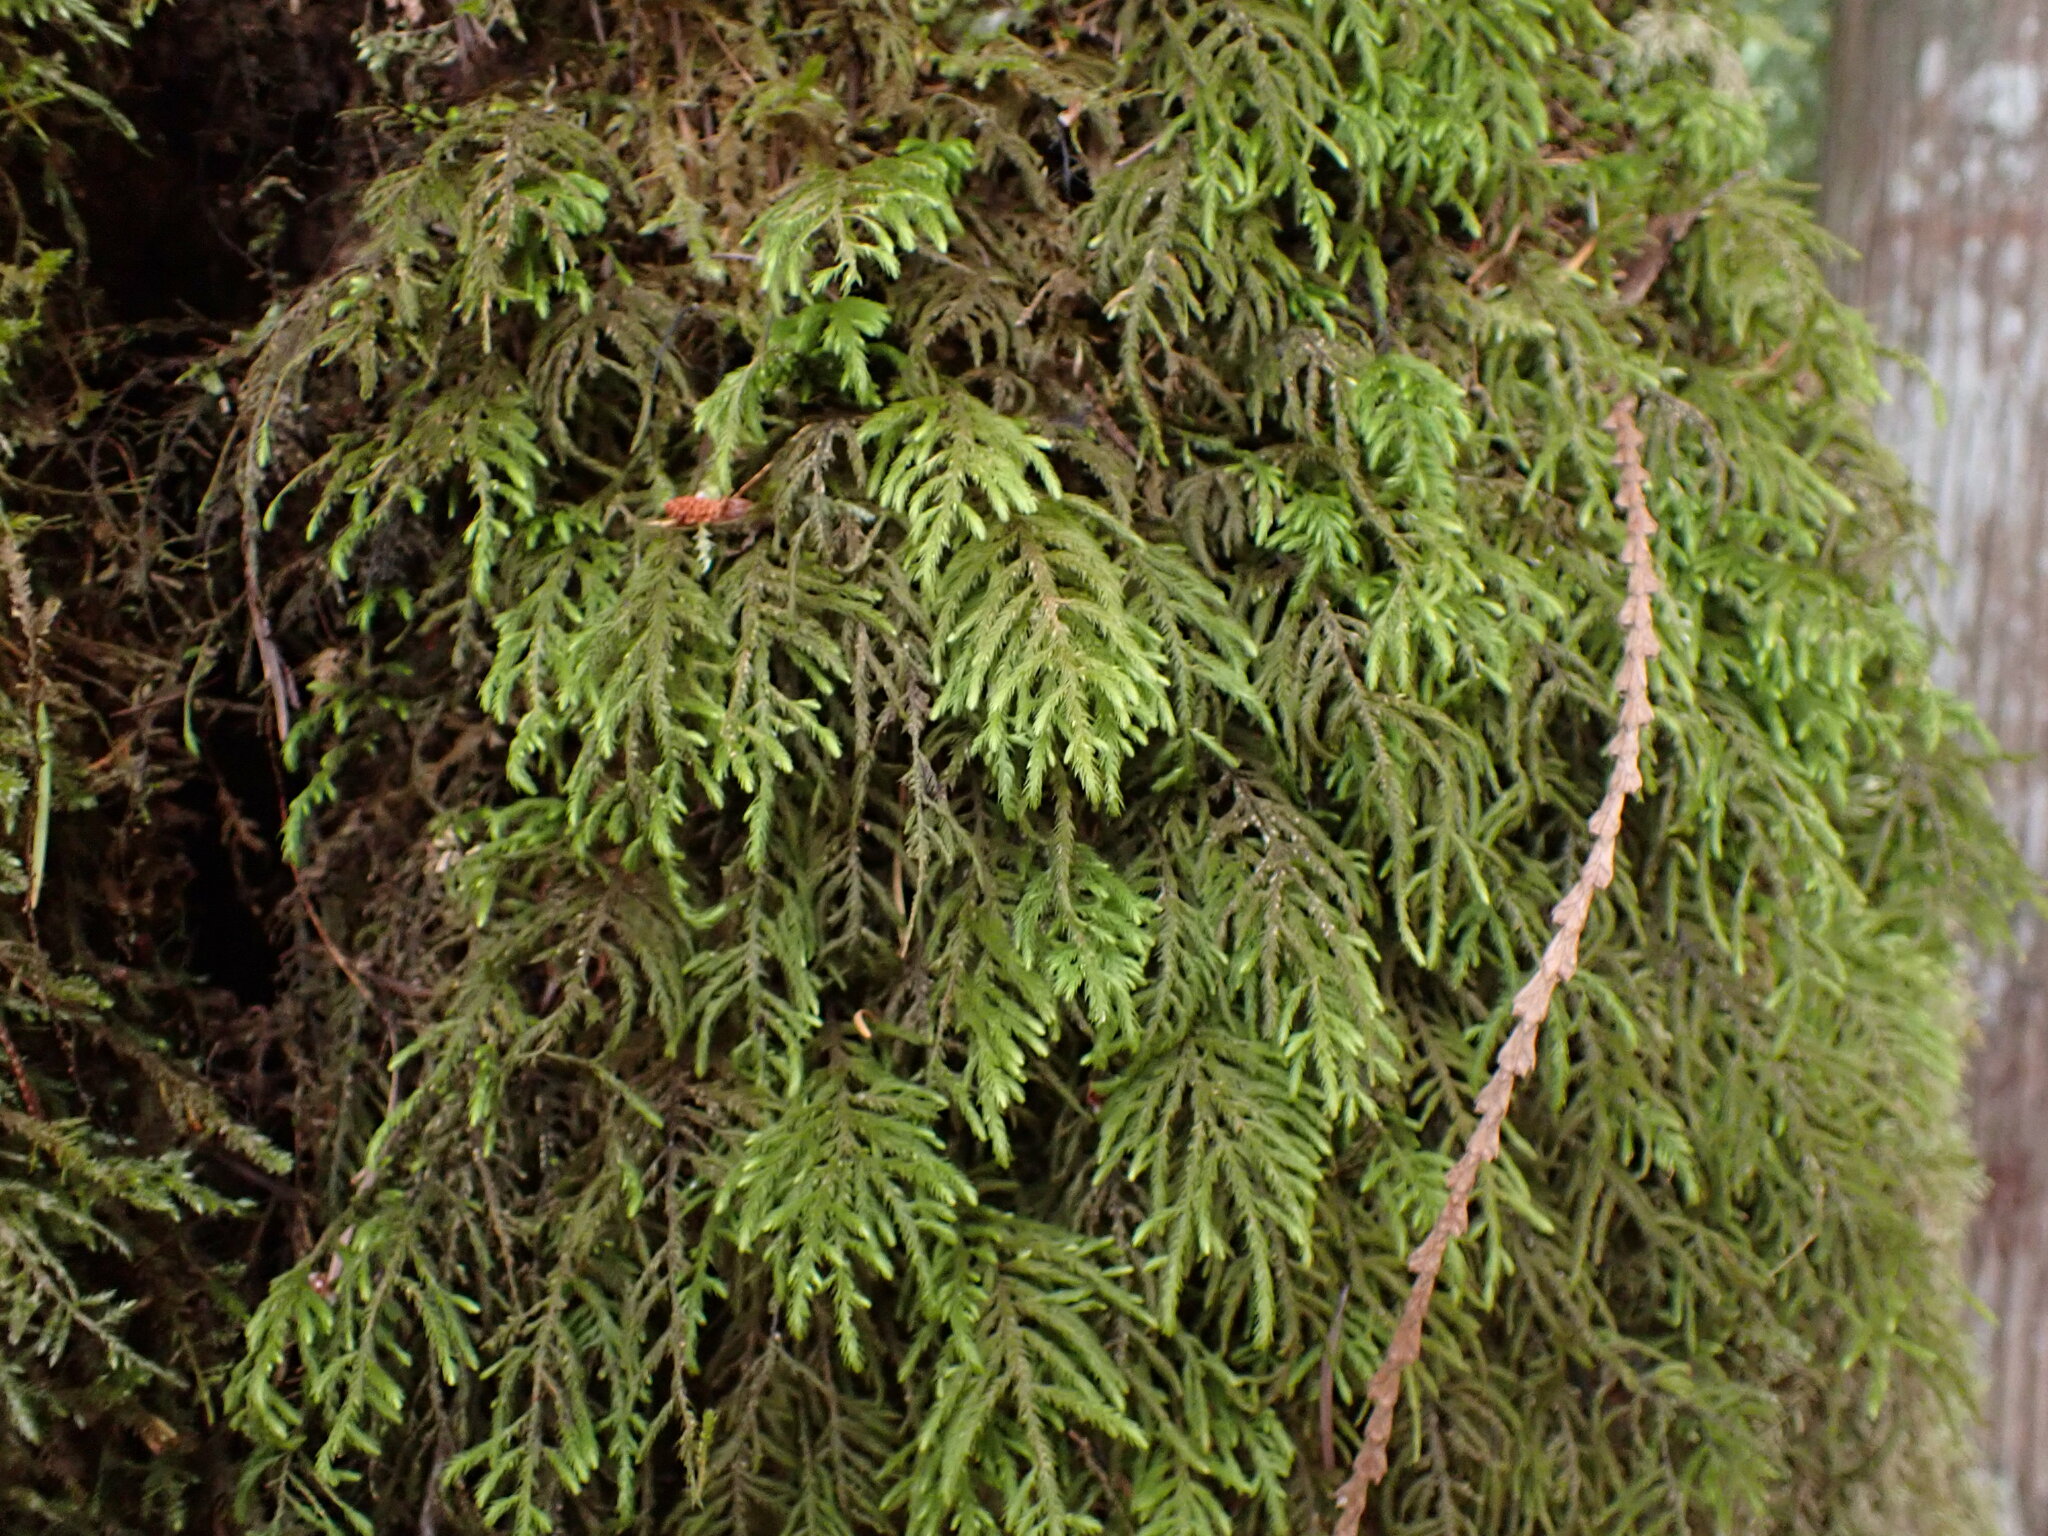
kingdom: Plantae
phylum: Bryophyta
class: Bryopsida
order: Hypnales
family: Cryphaeaceae
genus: Dendroalsia
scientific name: Dendroalsia abietina
